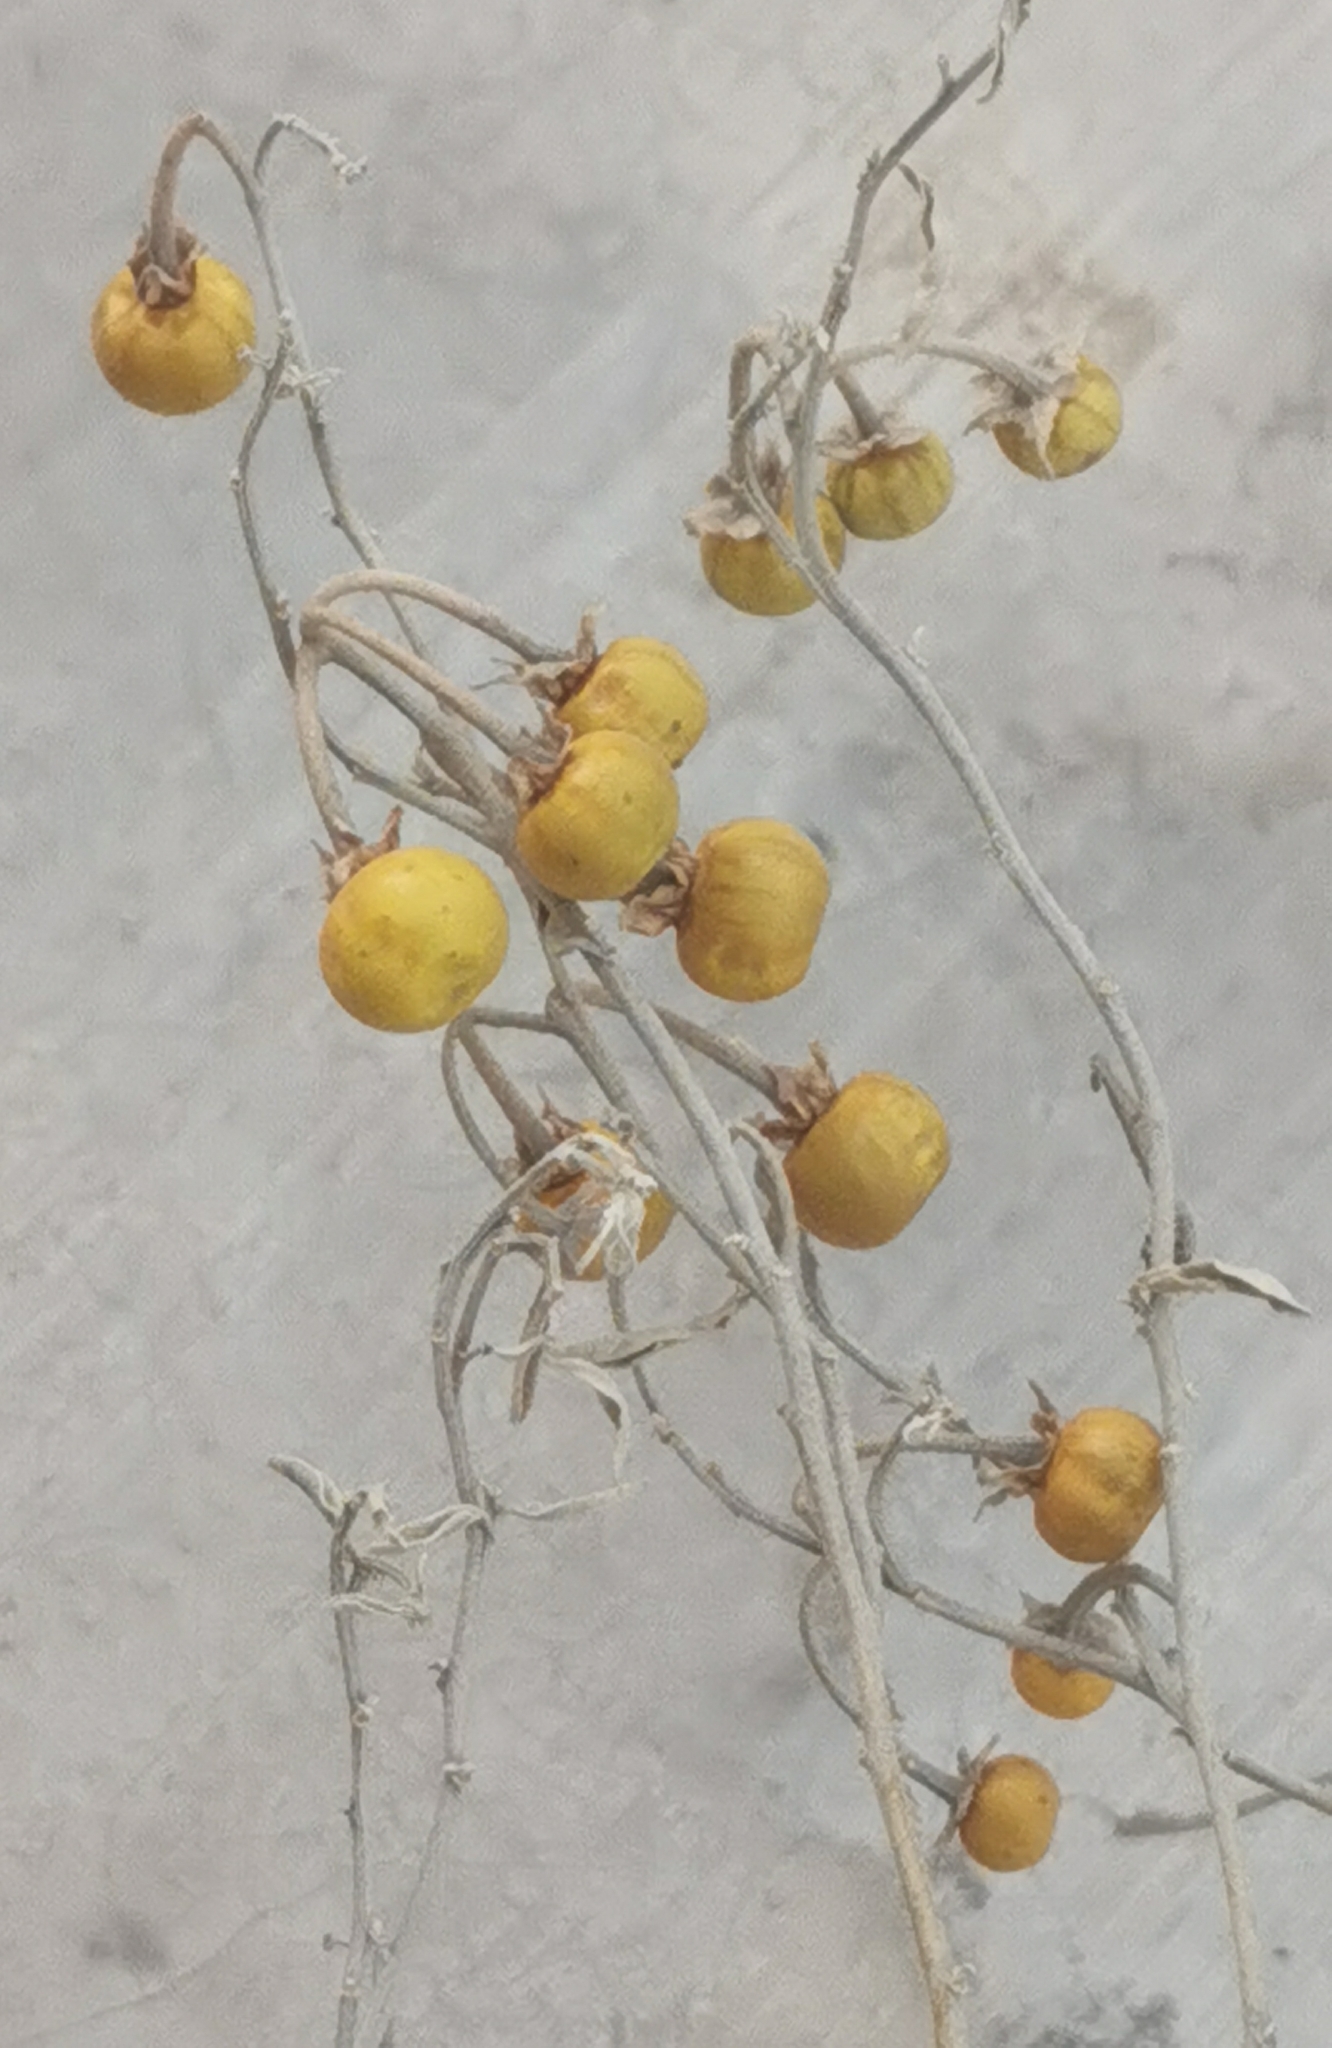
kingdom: Plantae
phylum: Tracheophyta
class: Magnoliopsida
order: Solanales
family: Solanaceae
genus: Solanum
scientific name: Solanum elaeagnifolium
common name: Silverleaf nightshade
